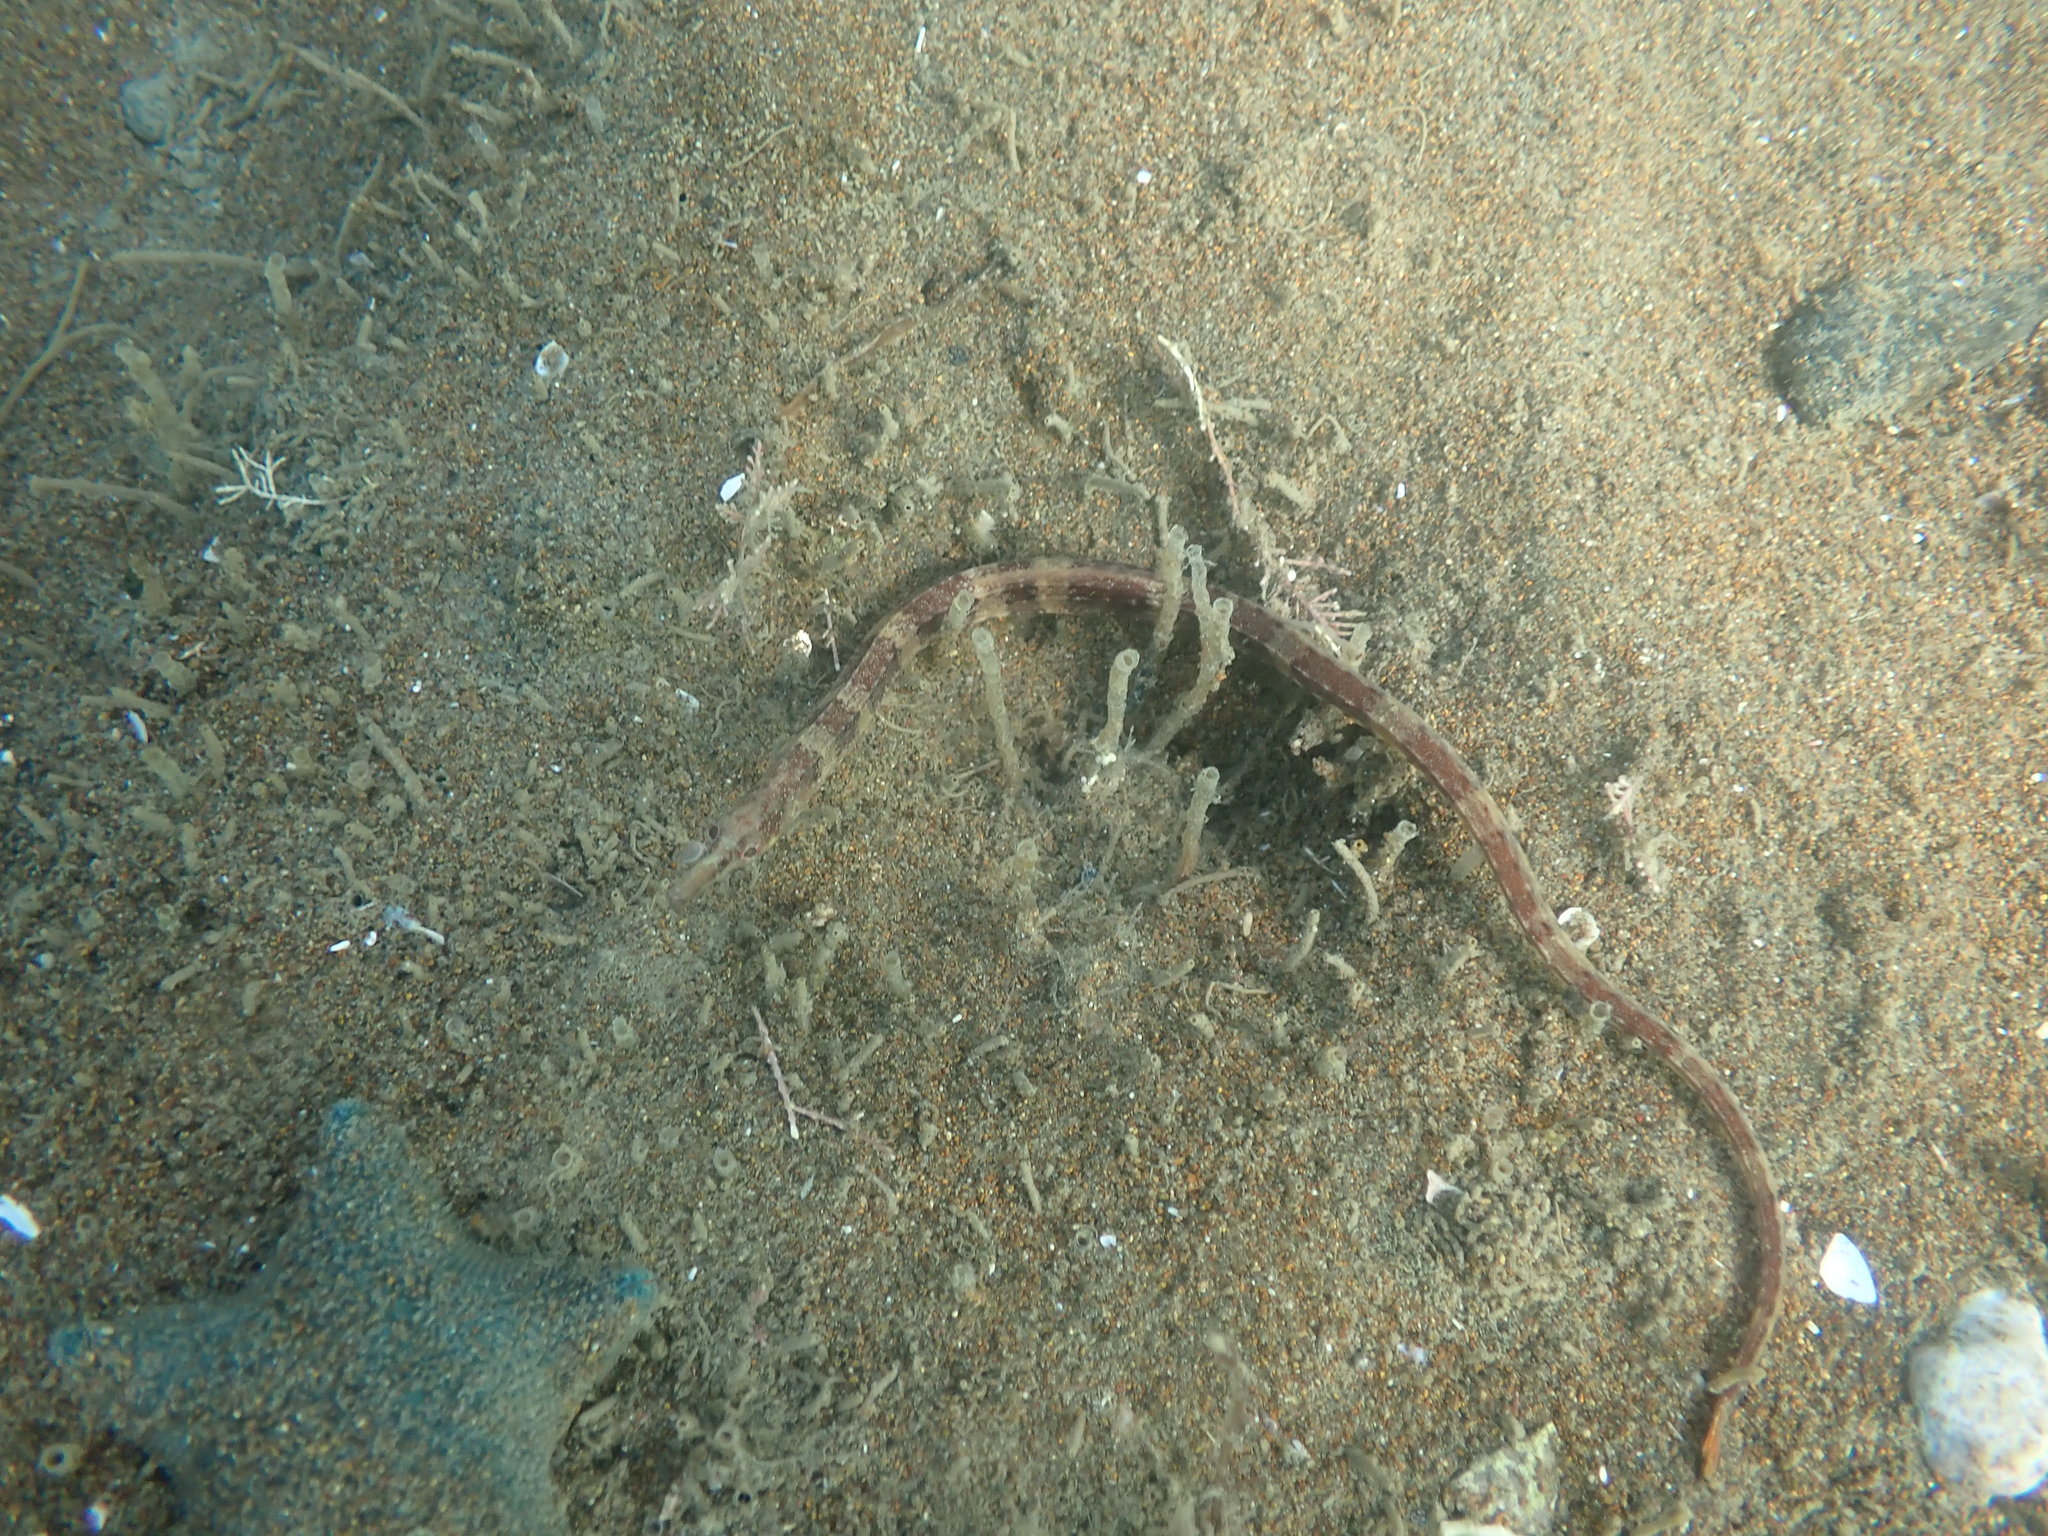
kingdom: Animalia
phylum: Chordata
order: Syngnathiformes
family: Syngnathidae
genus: Leptonotus
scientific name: Leptonotus norae
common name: Longsnout pipefish
